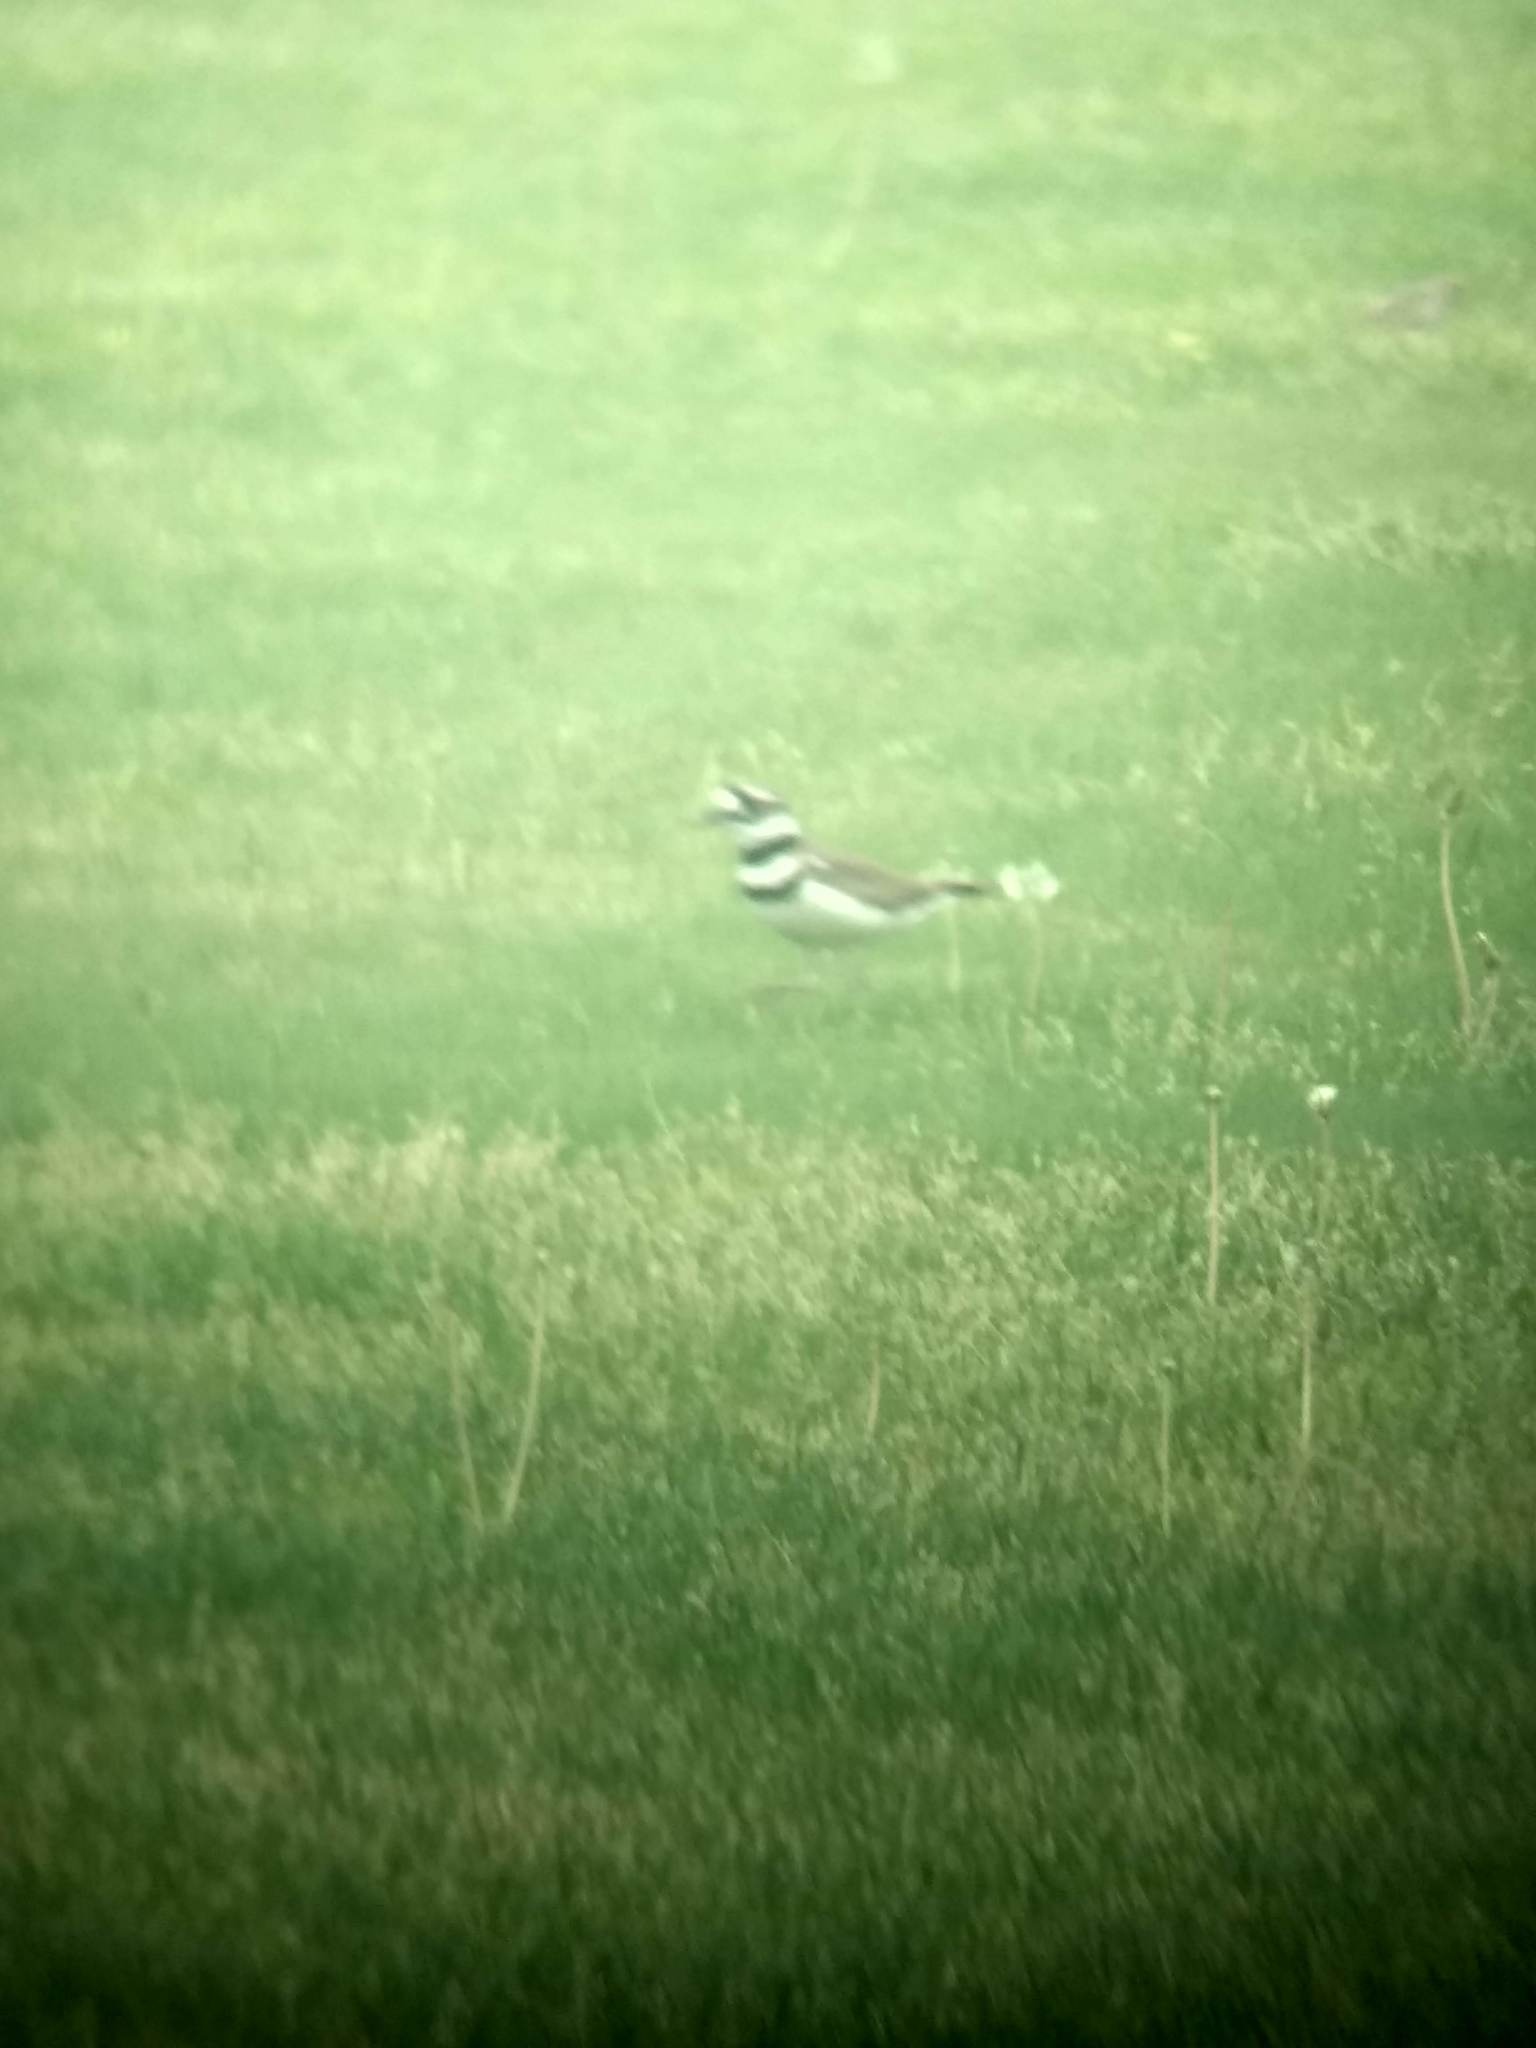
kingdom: Animalia
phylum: Chordata
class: Aves
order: Charadriiformes
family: Charadriidae
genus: Charadrius
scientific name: Charadrius vociferus
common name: Killdeer
